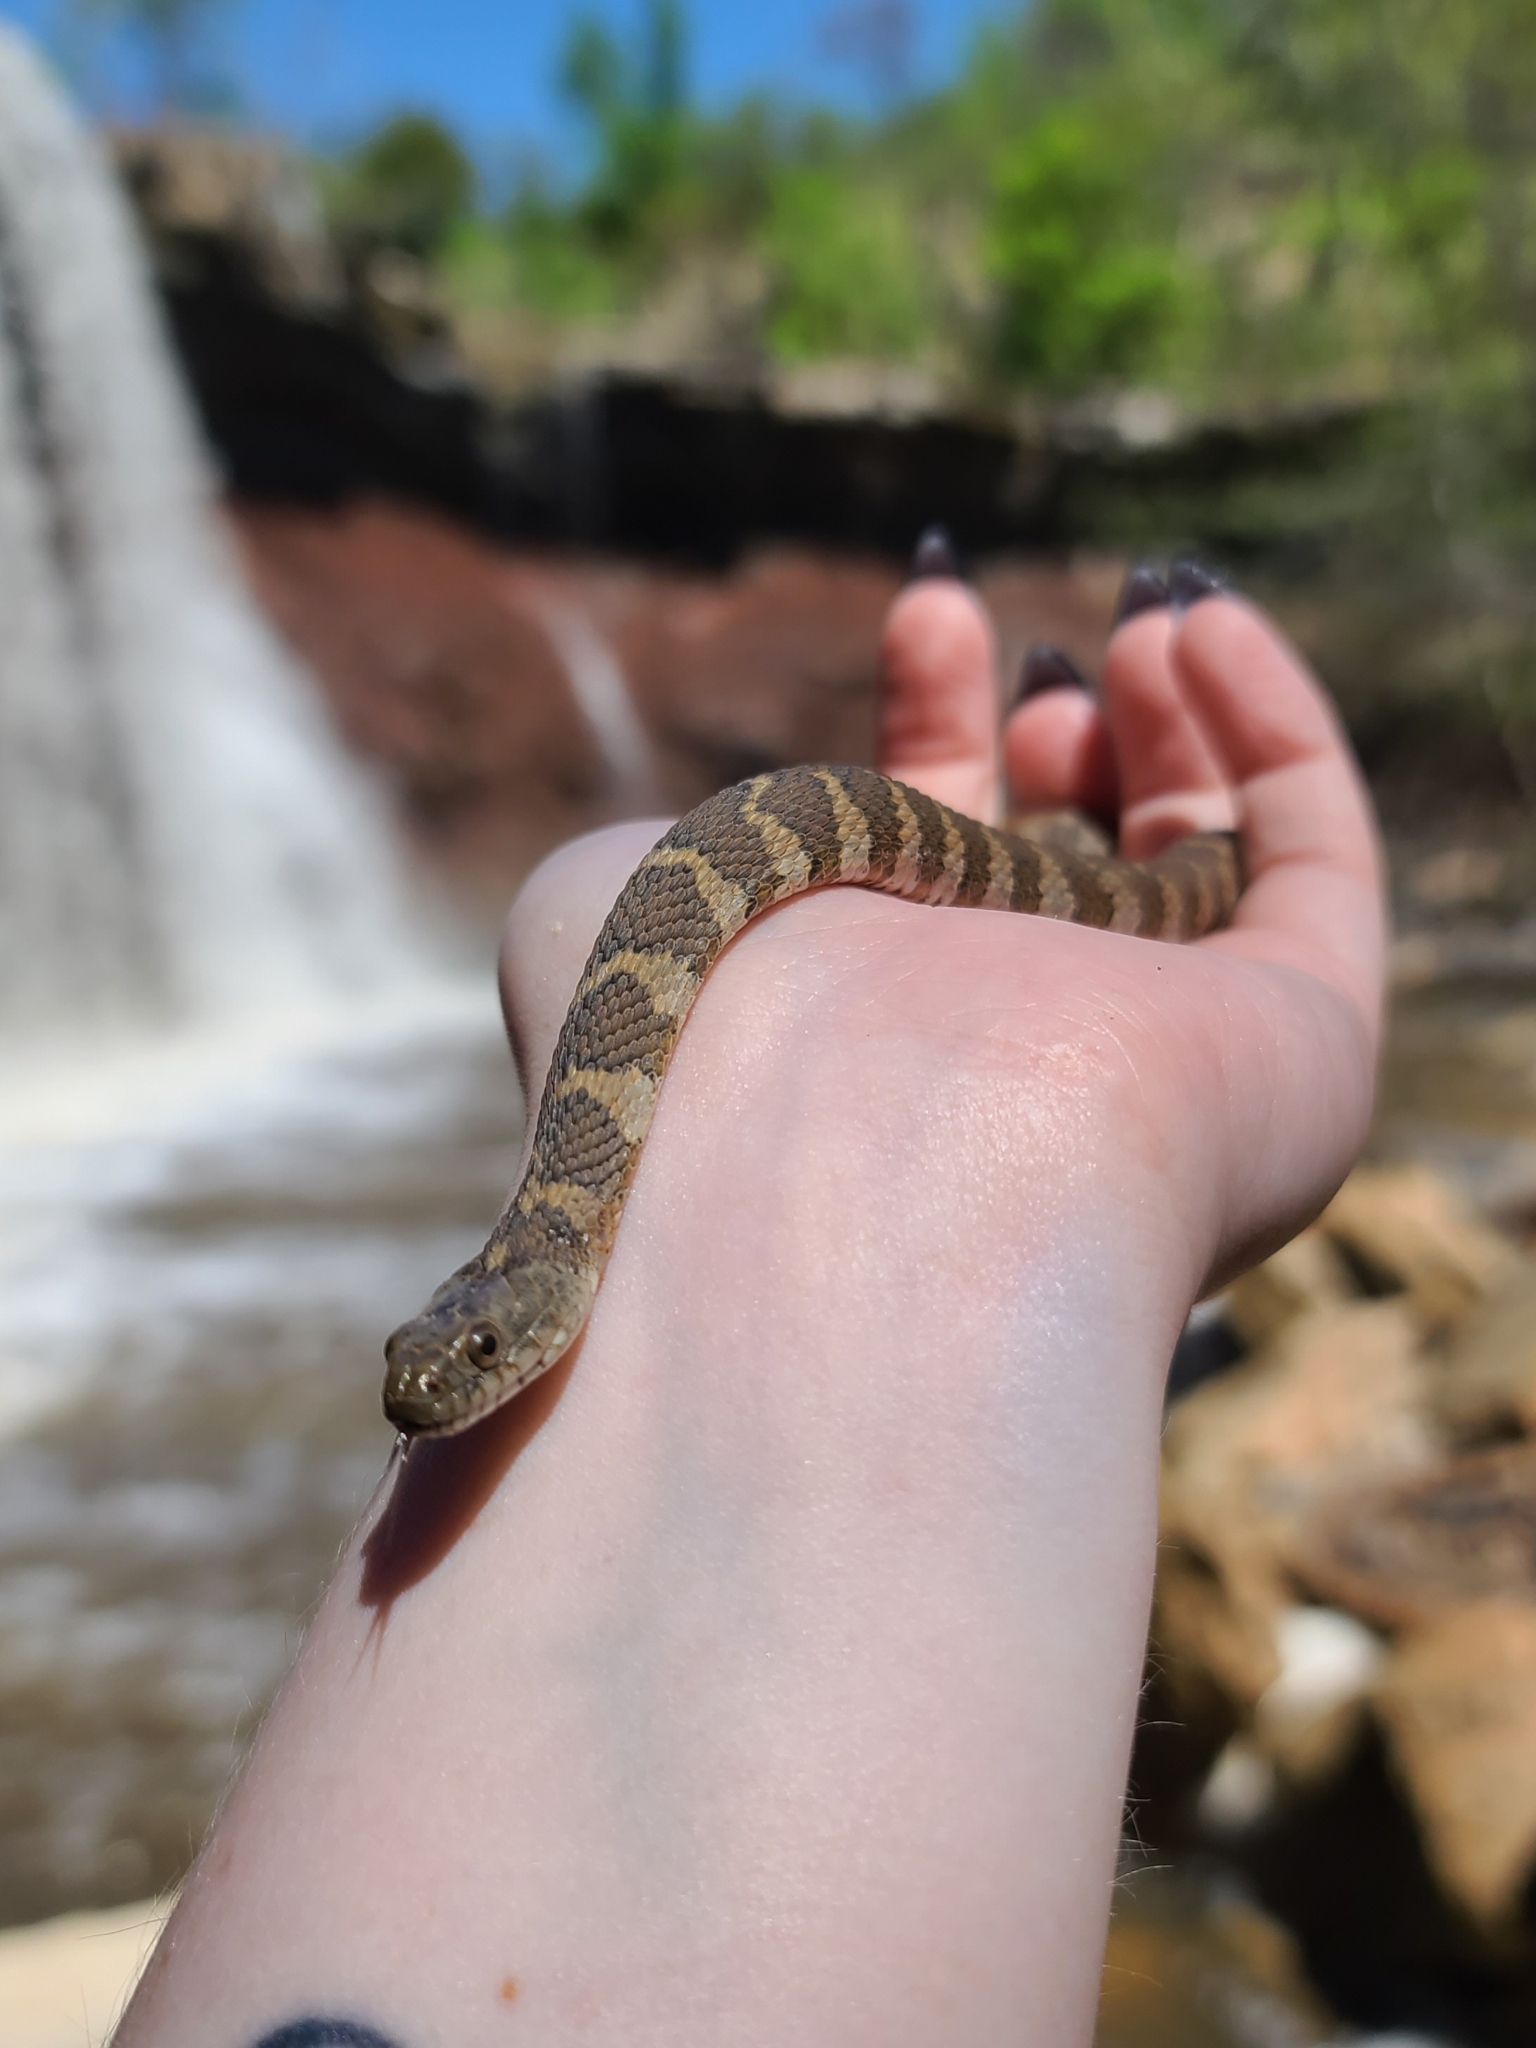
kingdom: Animalia
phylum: Chordata
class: Squamata
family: Colubridae
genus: Nerodia
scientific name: Nerodia sipedon
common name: Northern water snake
